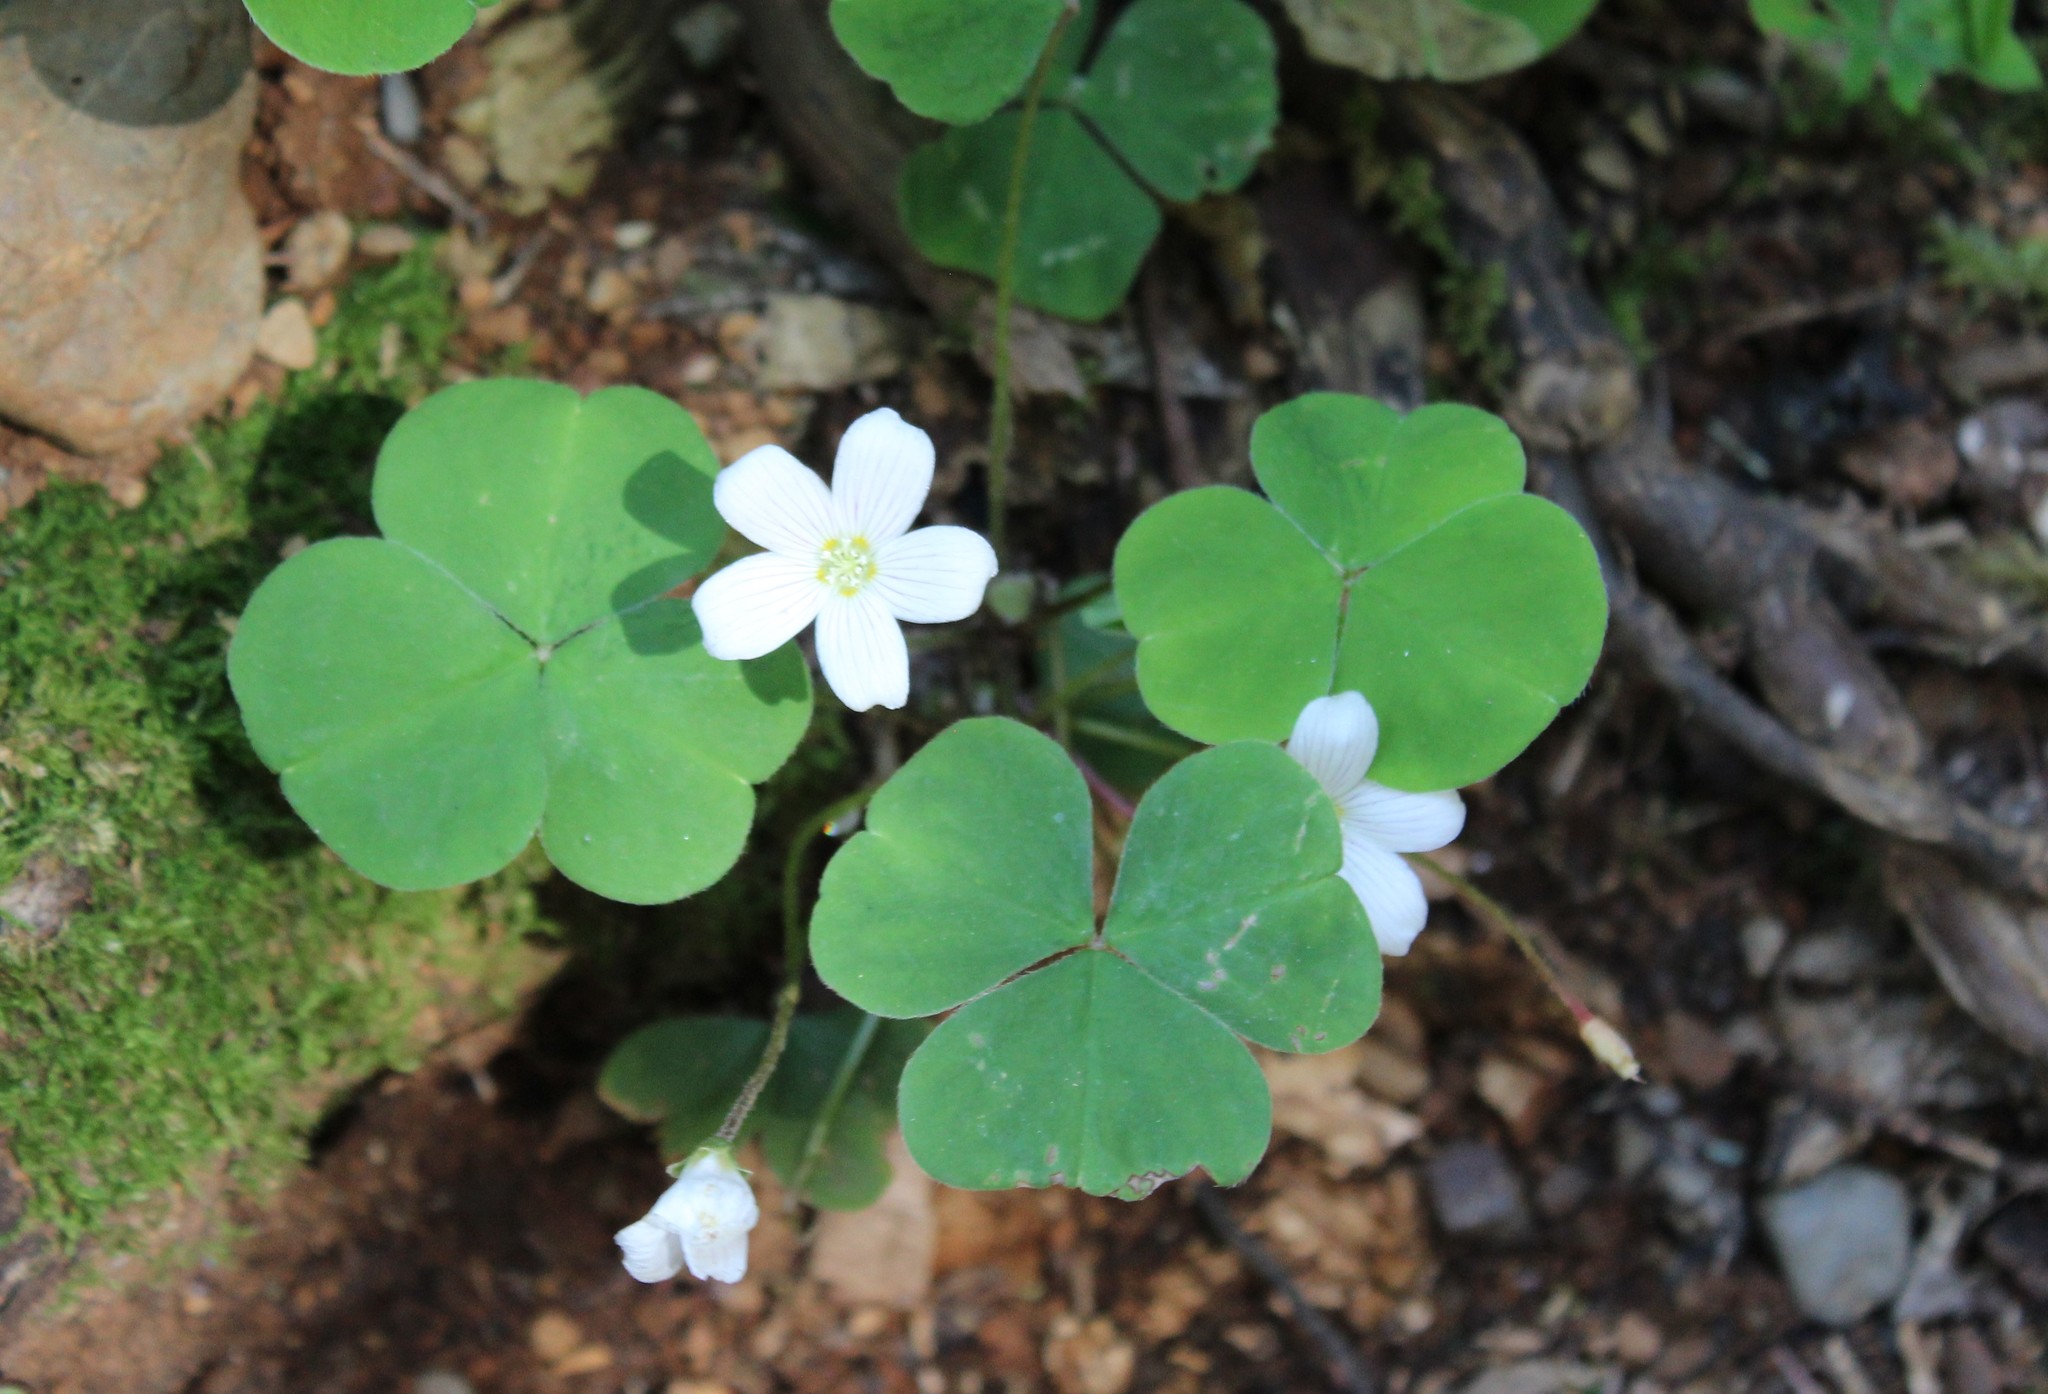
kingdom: Plantae
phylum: Tracheophyta
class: Magnoliopsida
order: Oxalidales
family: Oxalidaceae
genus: Oxalis
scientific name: Oxalis oregana
